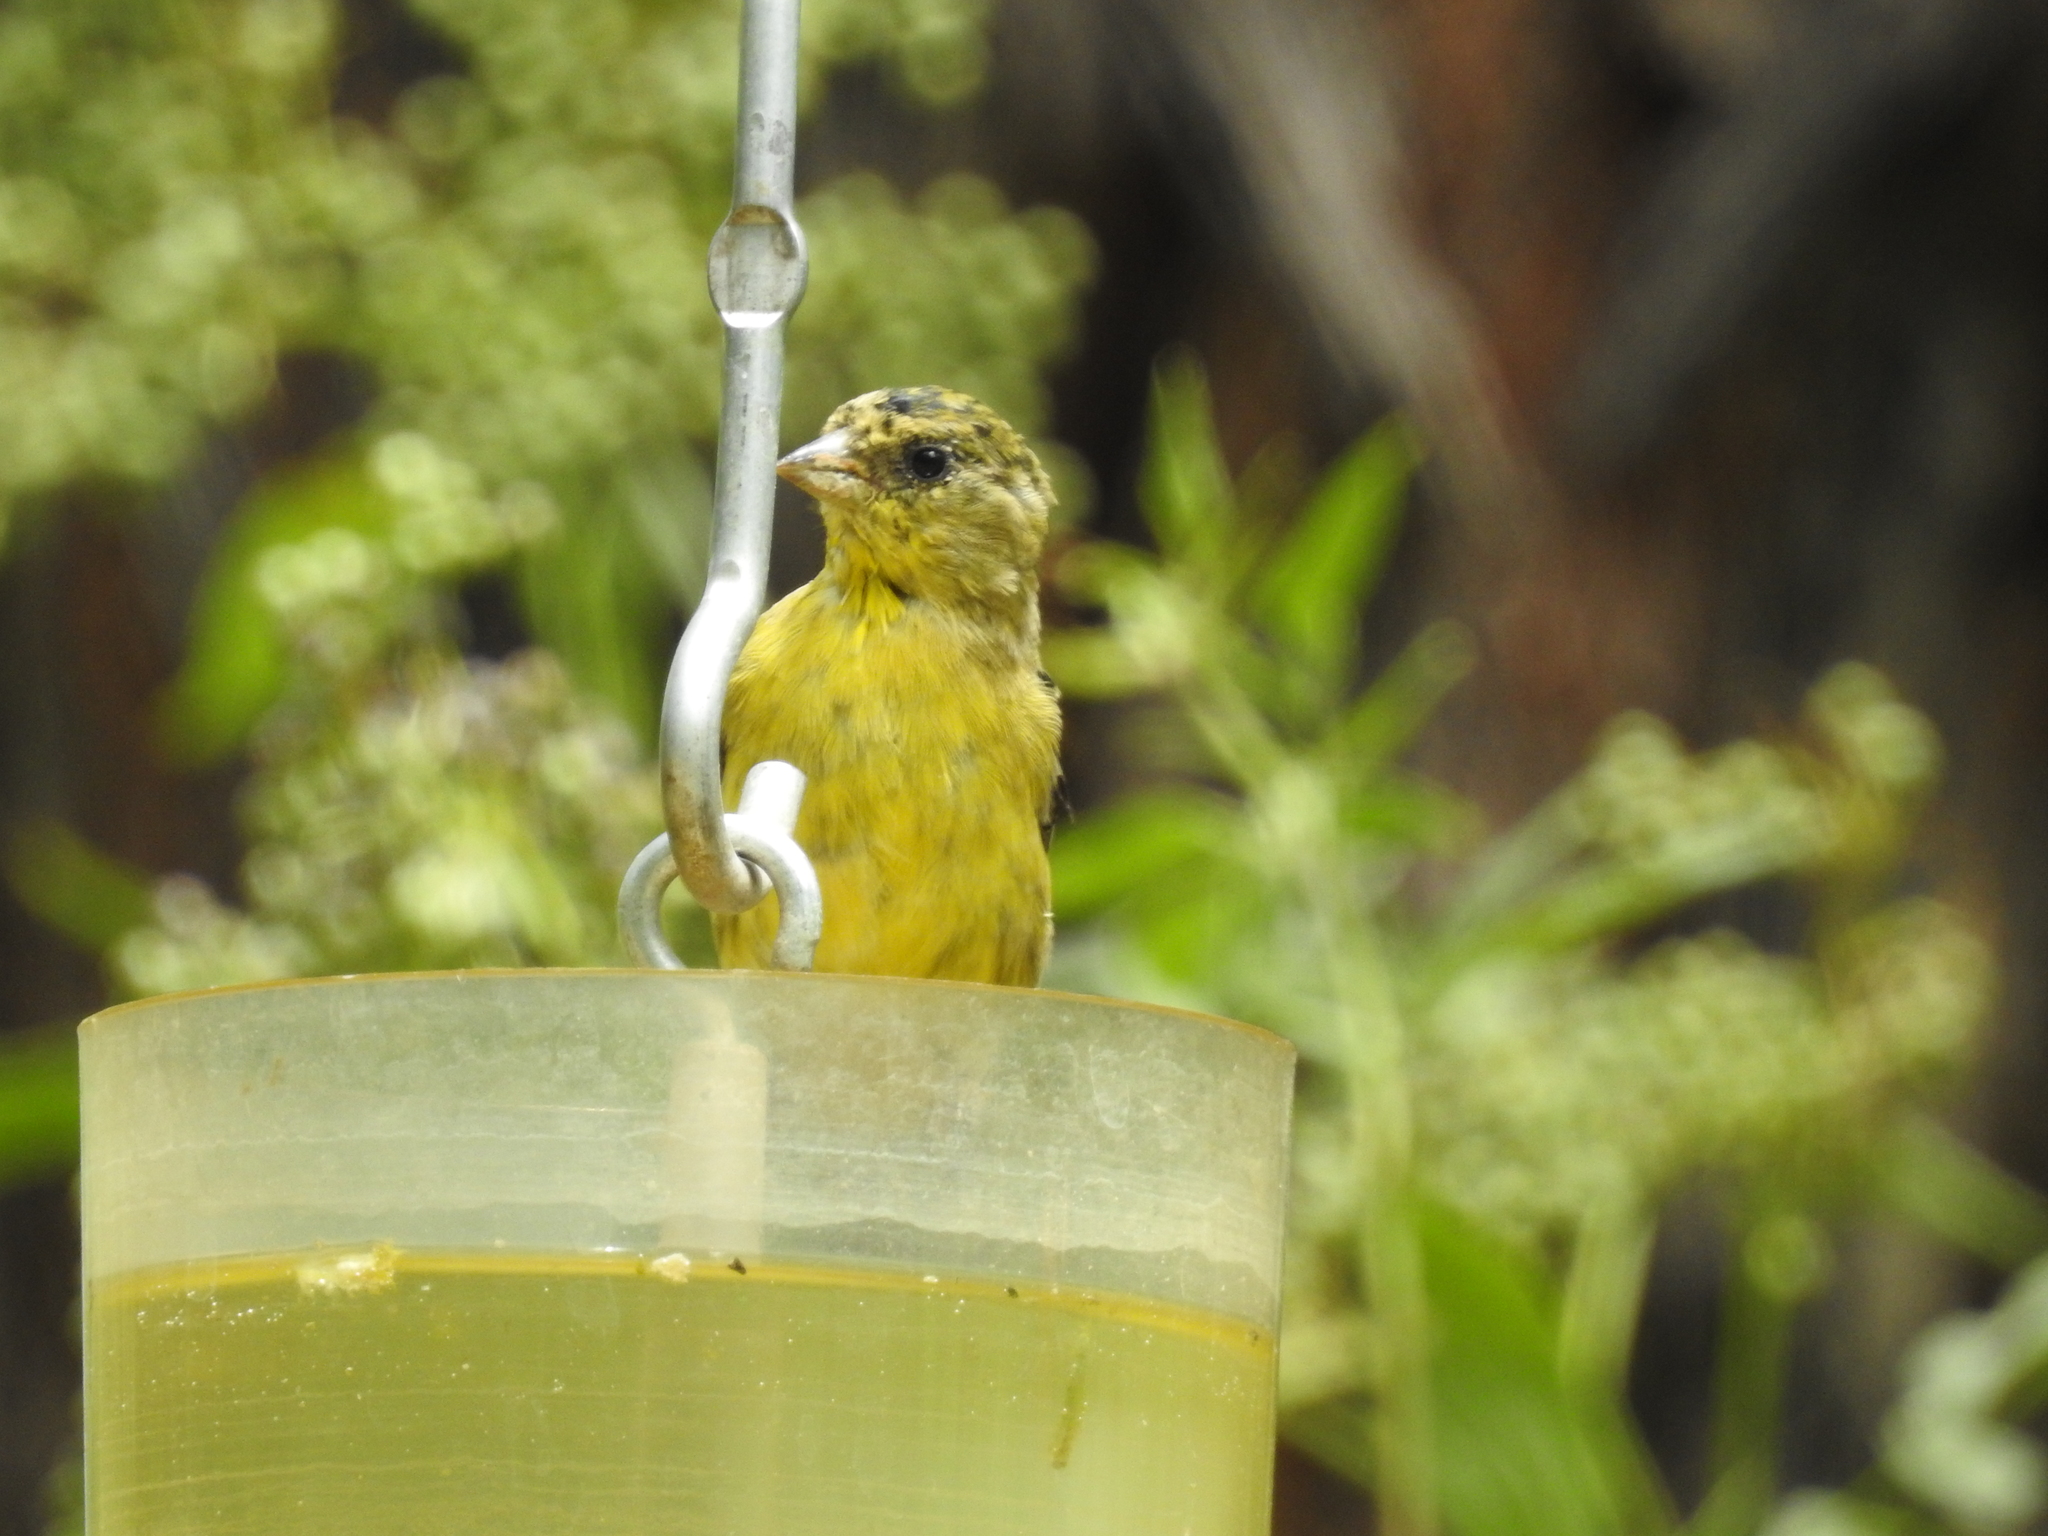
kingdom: Animalia
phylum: Chordata
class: Aves
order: Passeriformes
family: Fringillidae
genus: Spinus
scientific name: Spinus psaltria
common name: Lesser goldfinch
